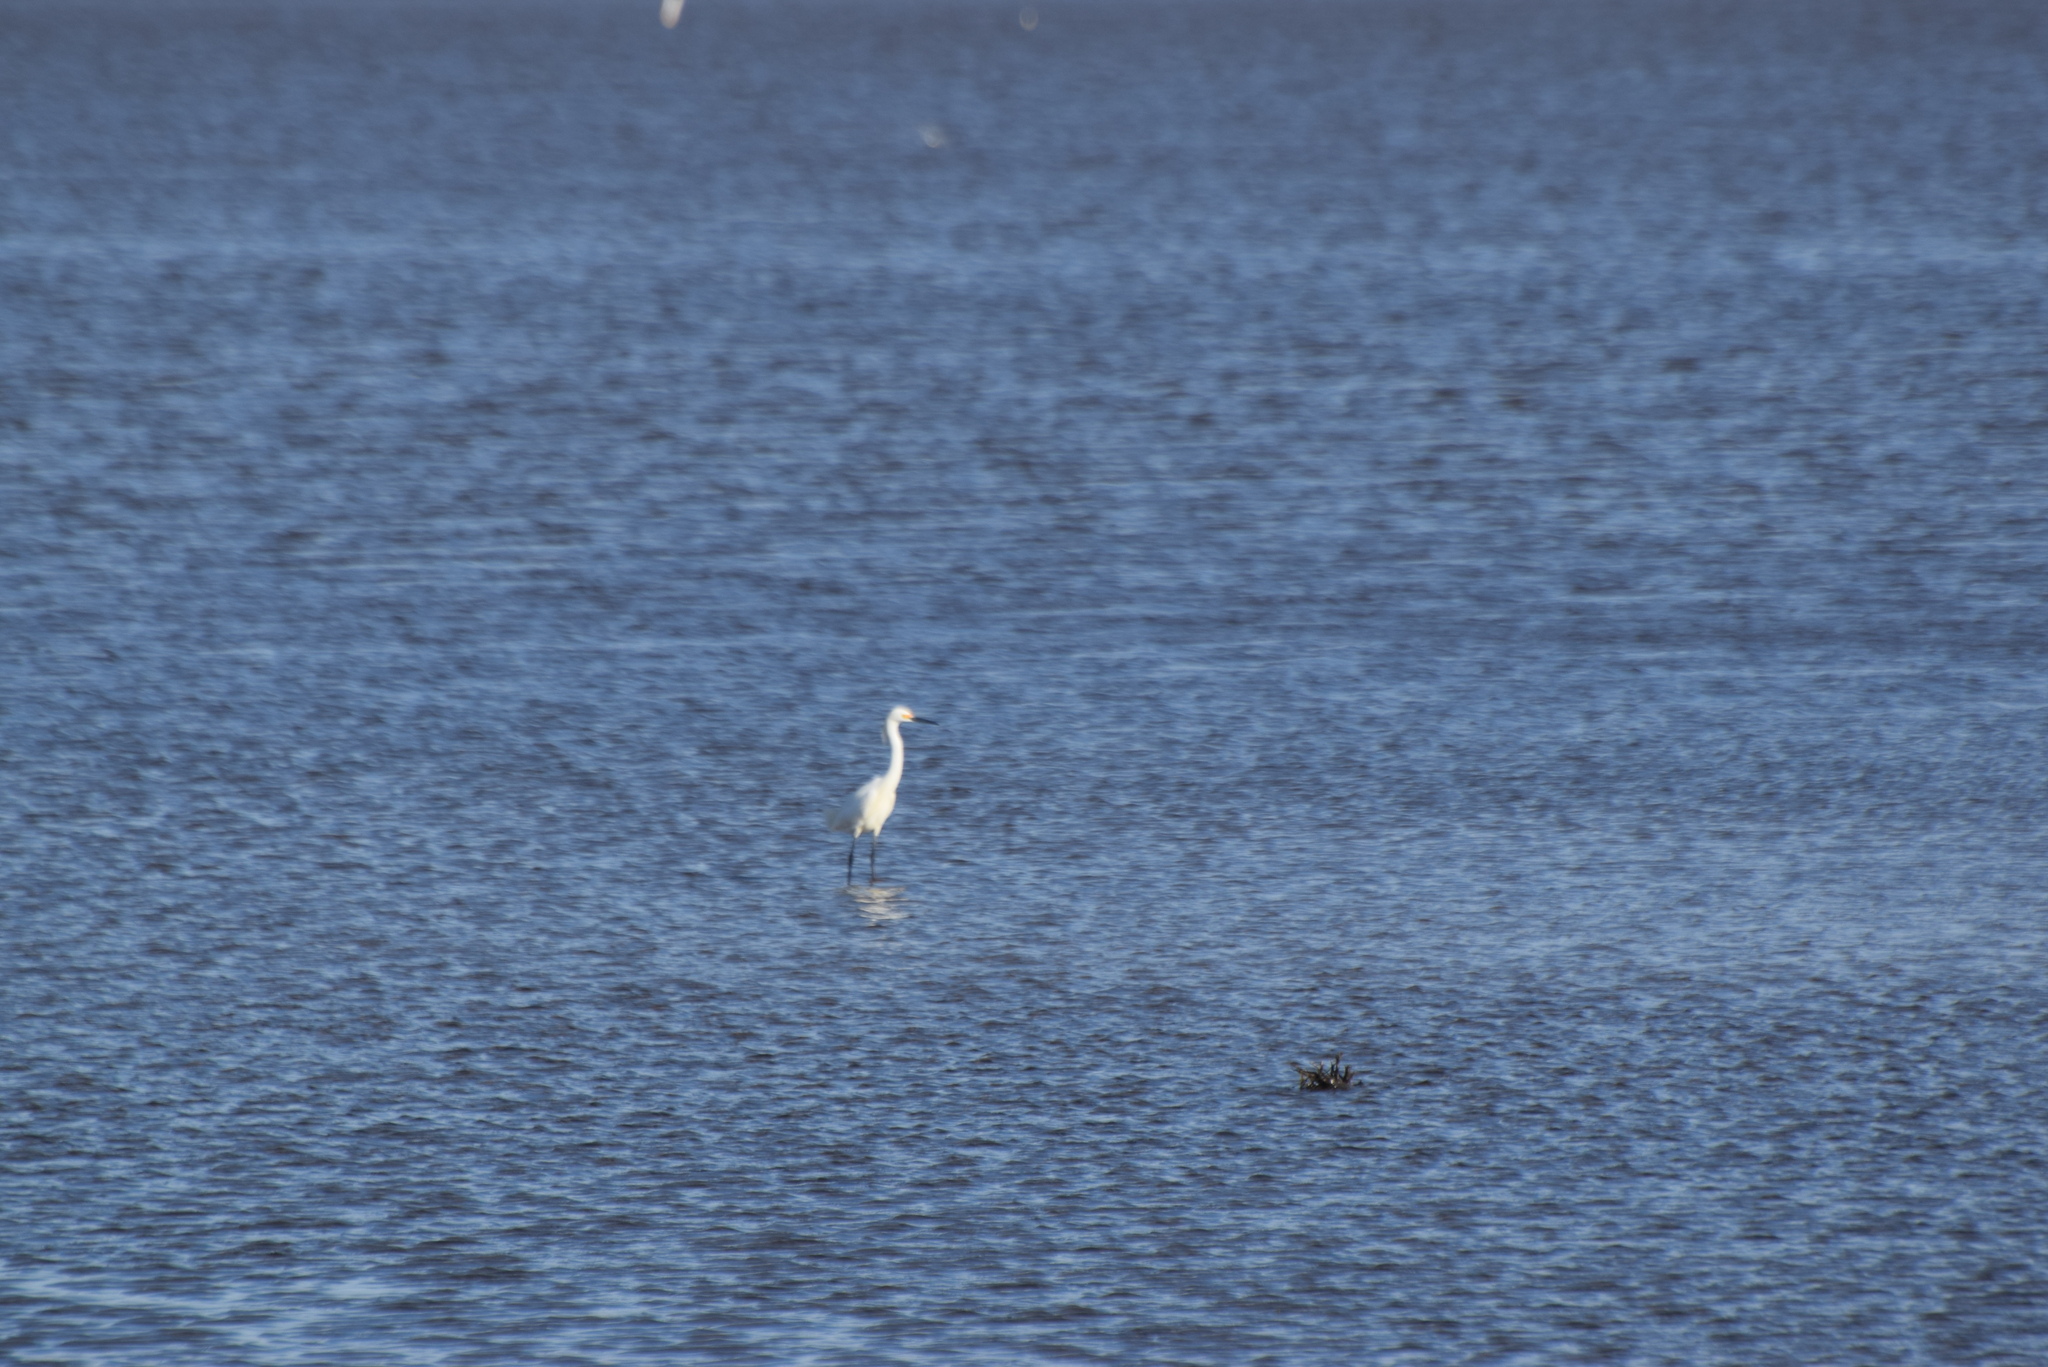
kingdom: Animalia
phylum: Chordata
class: Aves
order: Pelecaniformes
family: Ardeidae
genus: Egretta
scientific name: Egretta thula
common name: Snowy egret
